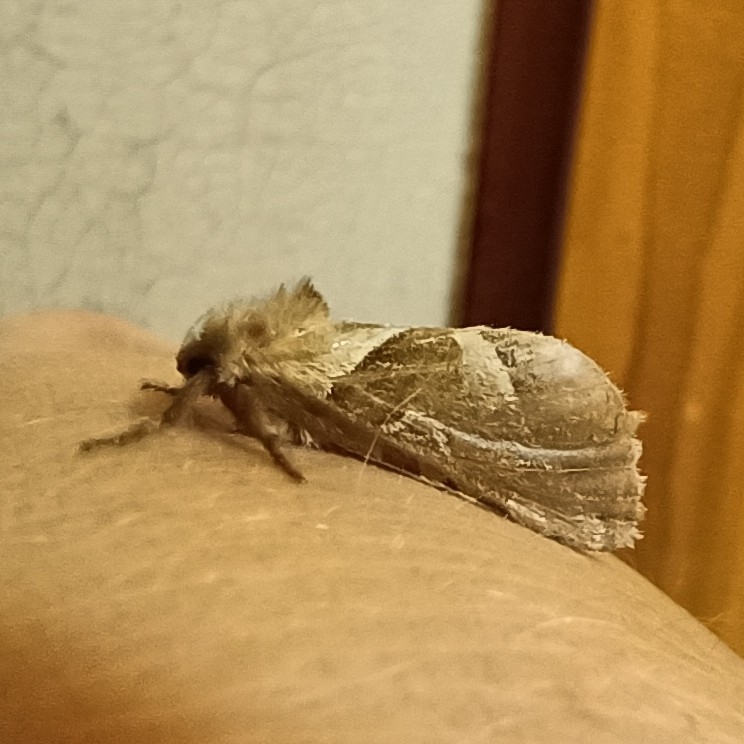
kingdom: Animalia
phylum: Arthropoda
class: Insecta
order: Lepidoptera
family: Hepialidae
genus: Triodia
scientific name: Triodia sylvina
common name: Orange swift
